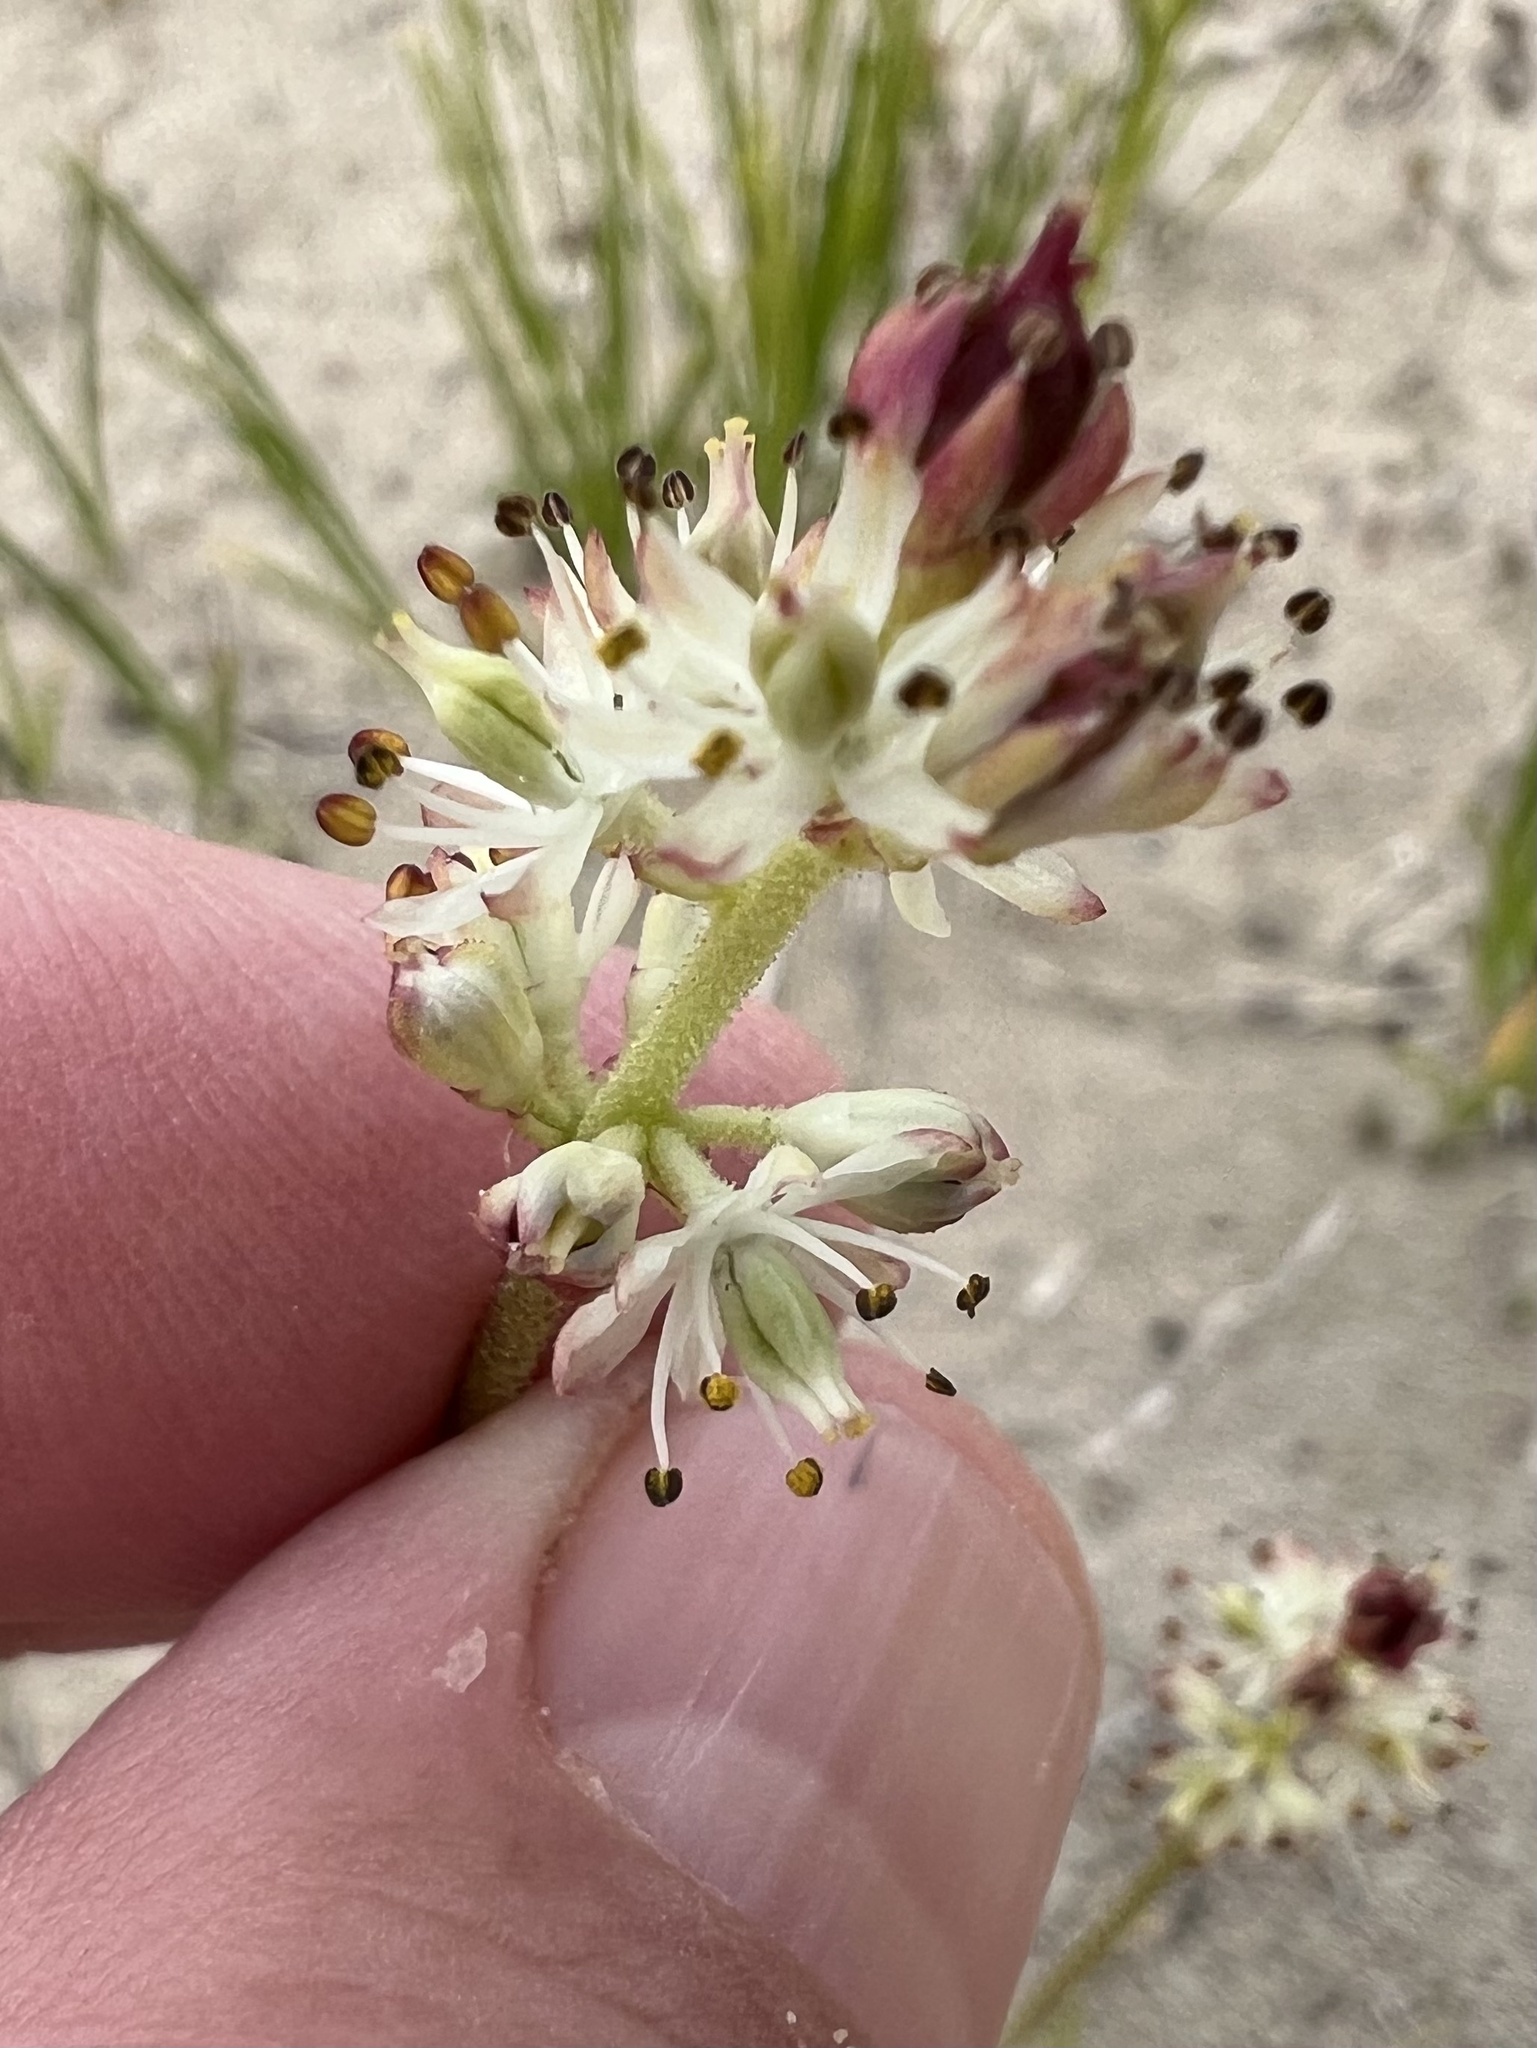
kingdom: Plantae
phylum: Tracheophyta
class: Liliopsida
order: Alismatales
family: Tofieldiaceae
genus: Triantha
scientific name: Triantha glutinosa
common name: Glutinous tofieldia
